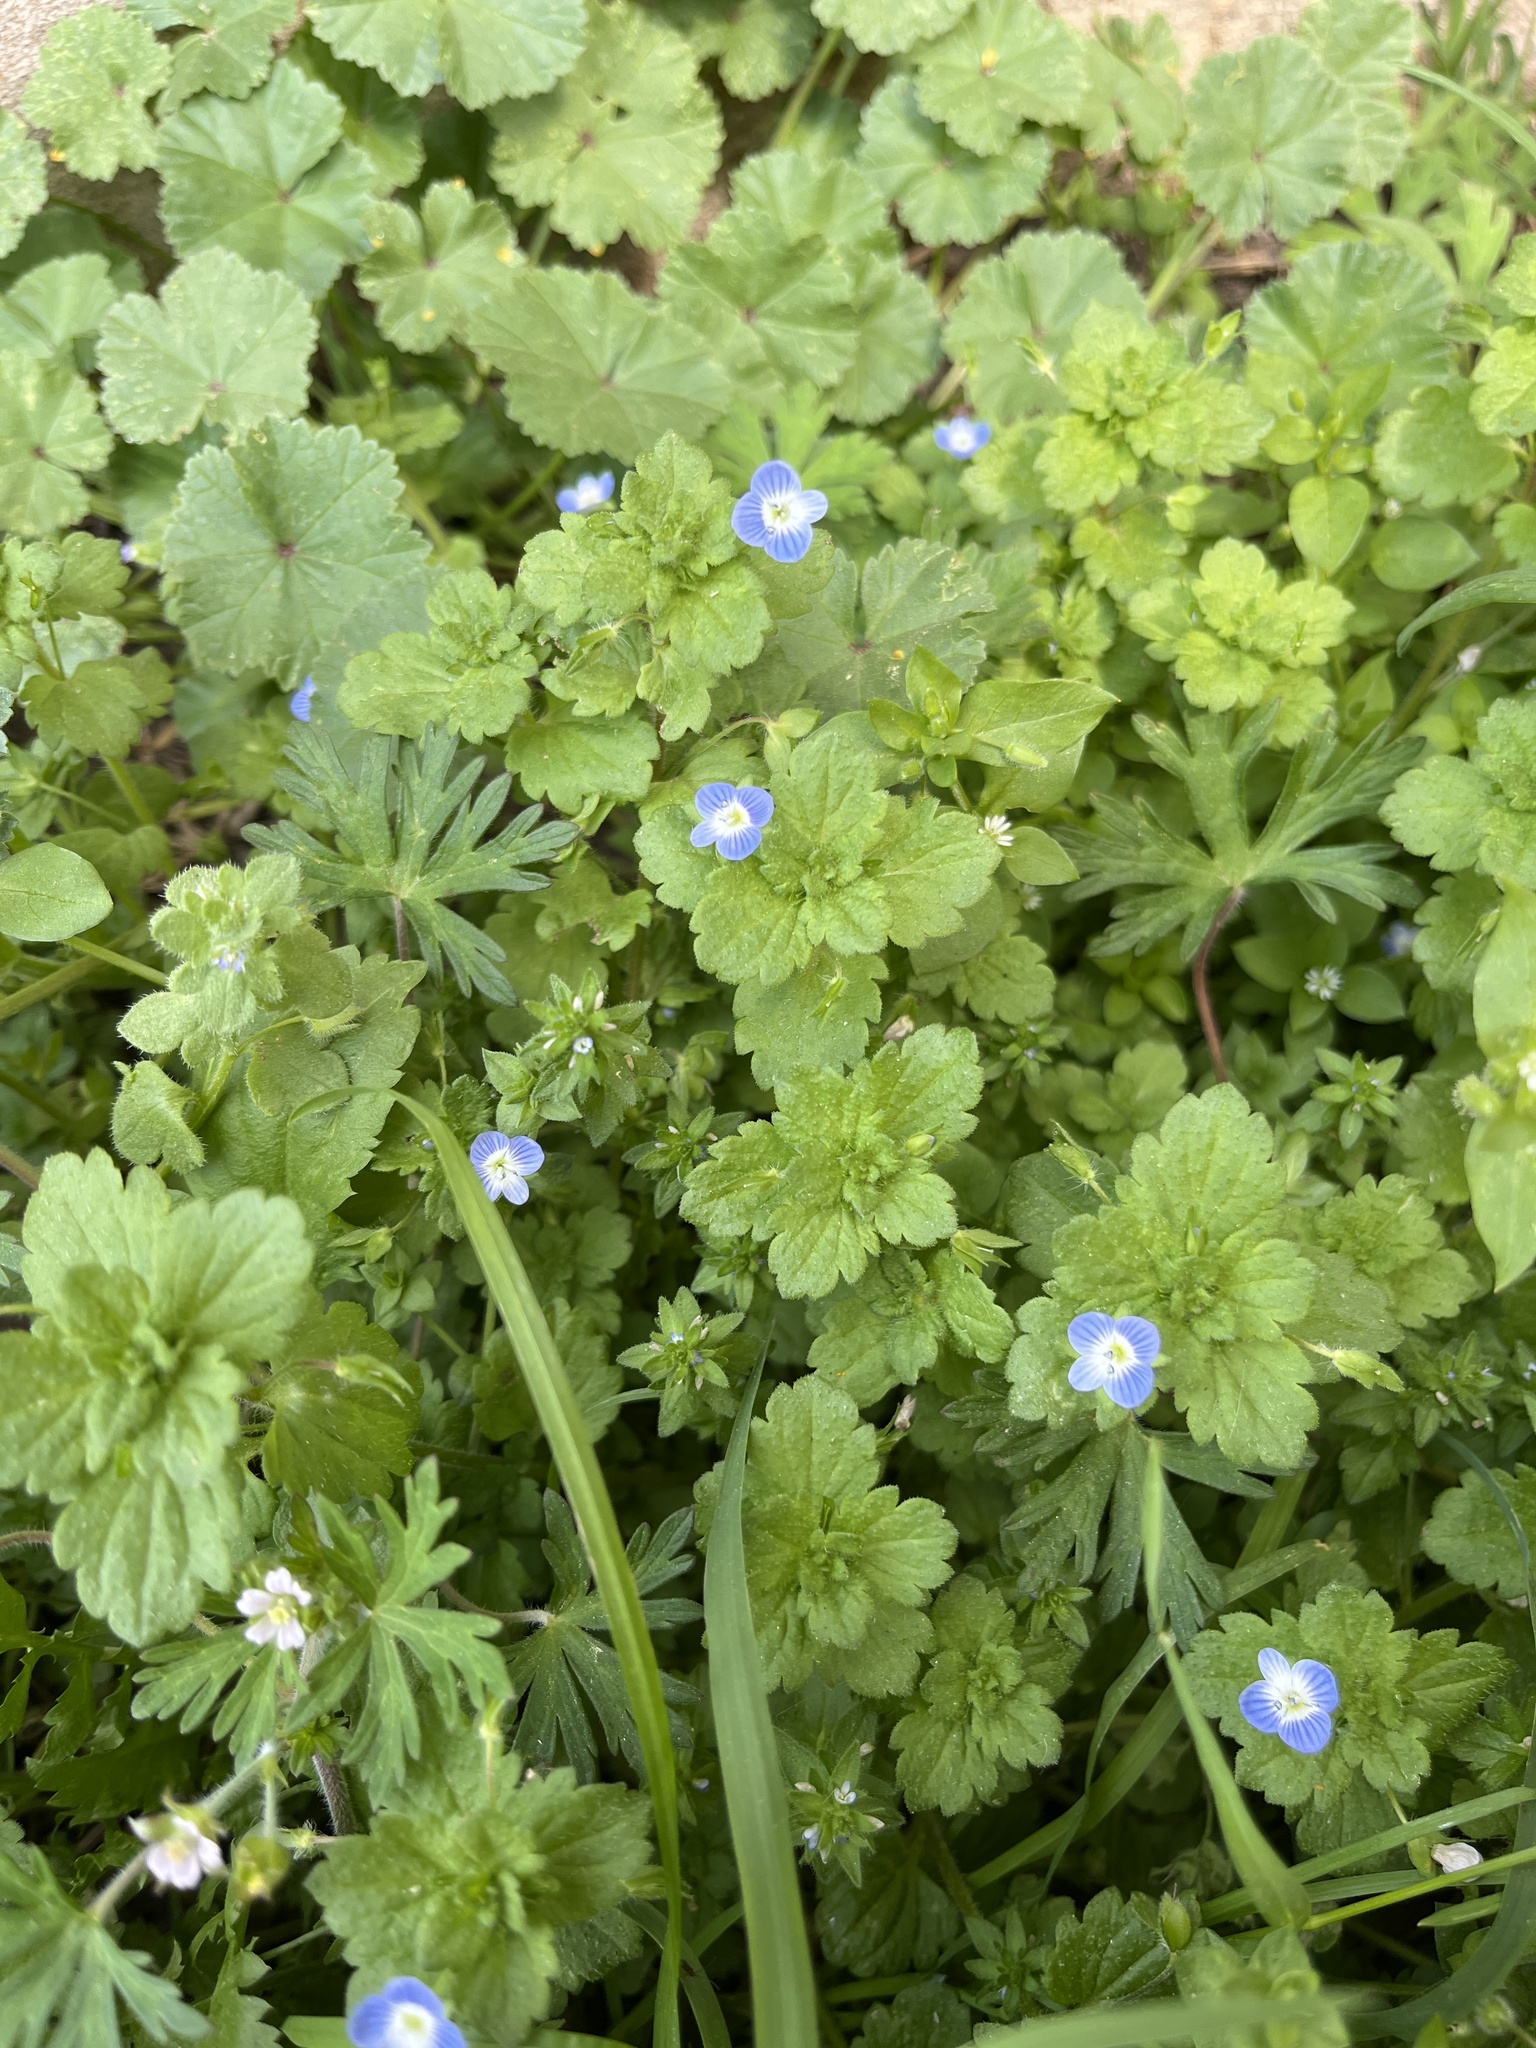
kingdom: Plantae
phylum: Tracheophyta
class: Magnoliopsida
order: Lamiales
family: Plantaginaceae
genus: Veronica
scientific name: Veronica persica
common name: Common field-speedwell
